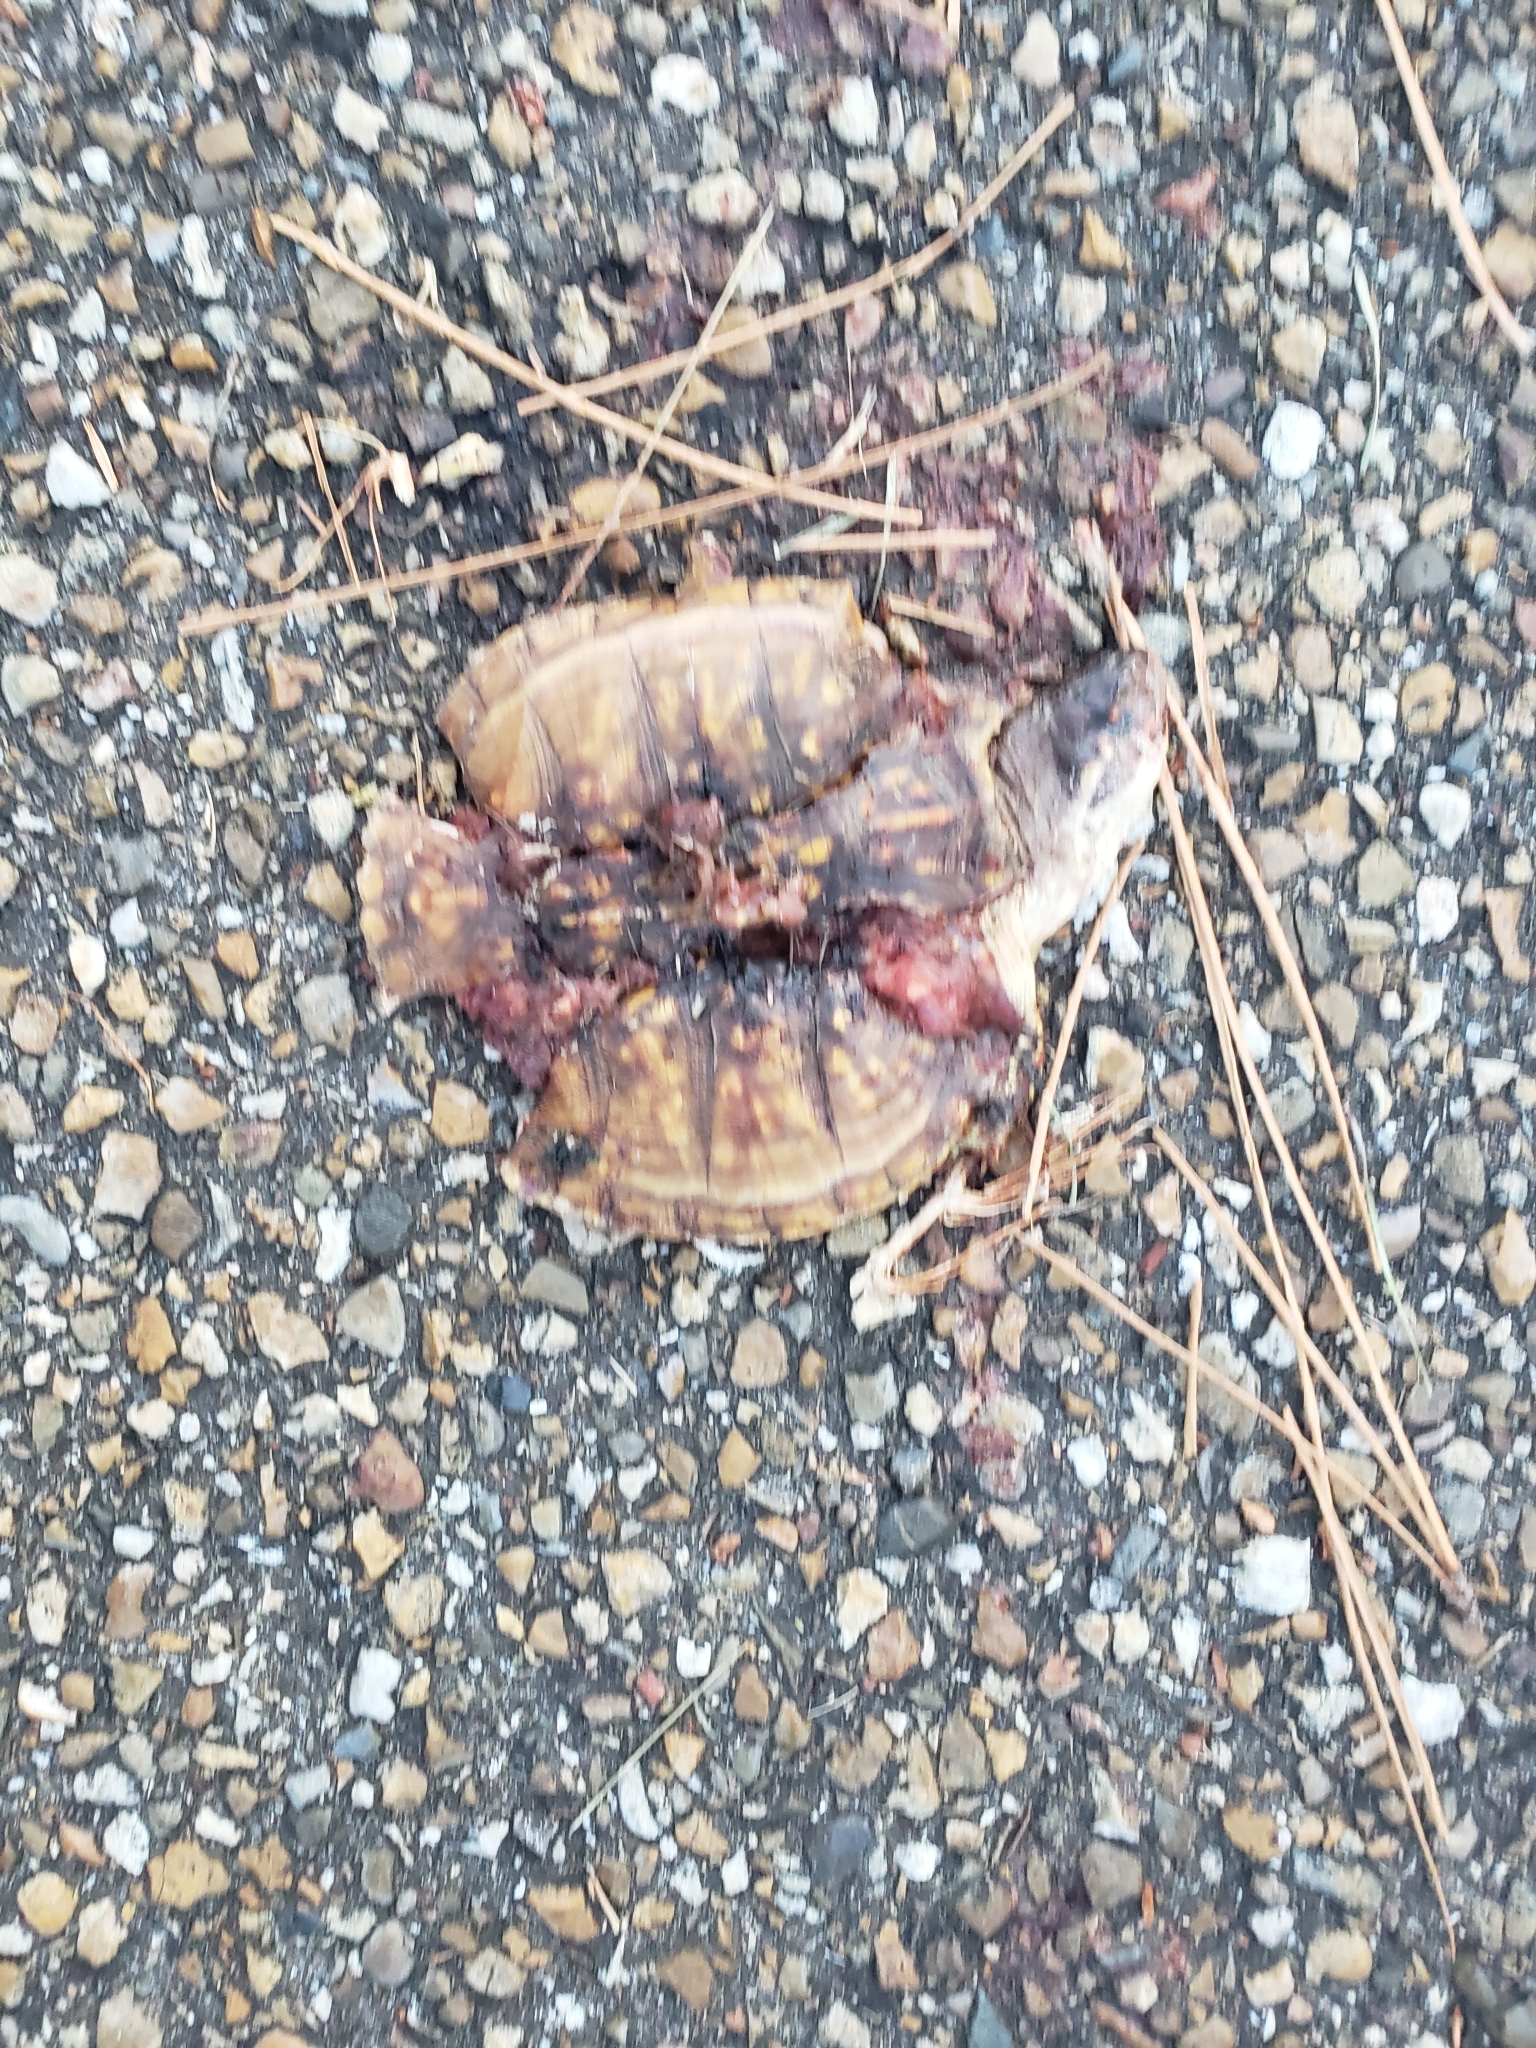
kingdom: Animalia
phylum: Chordata
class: Testudines
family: Emydidae
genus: Terrapene
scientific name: Terrapene carolina
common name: Common box turtle
